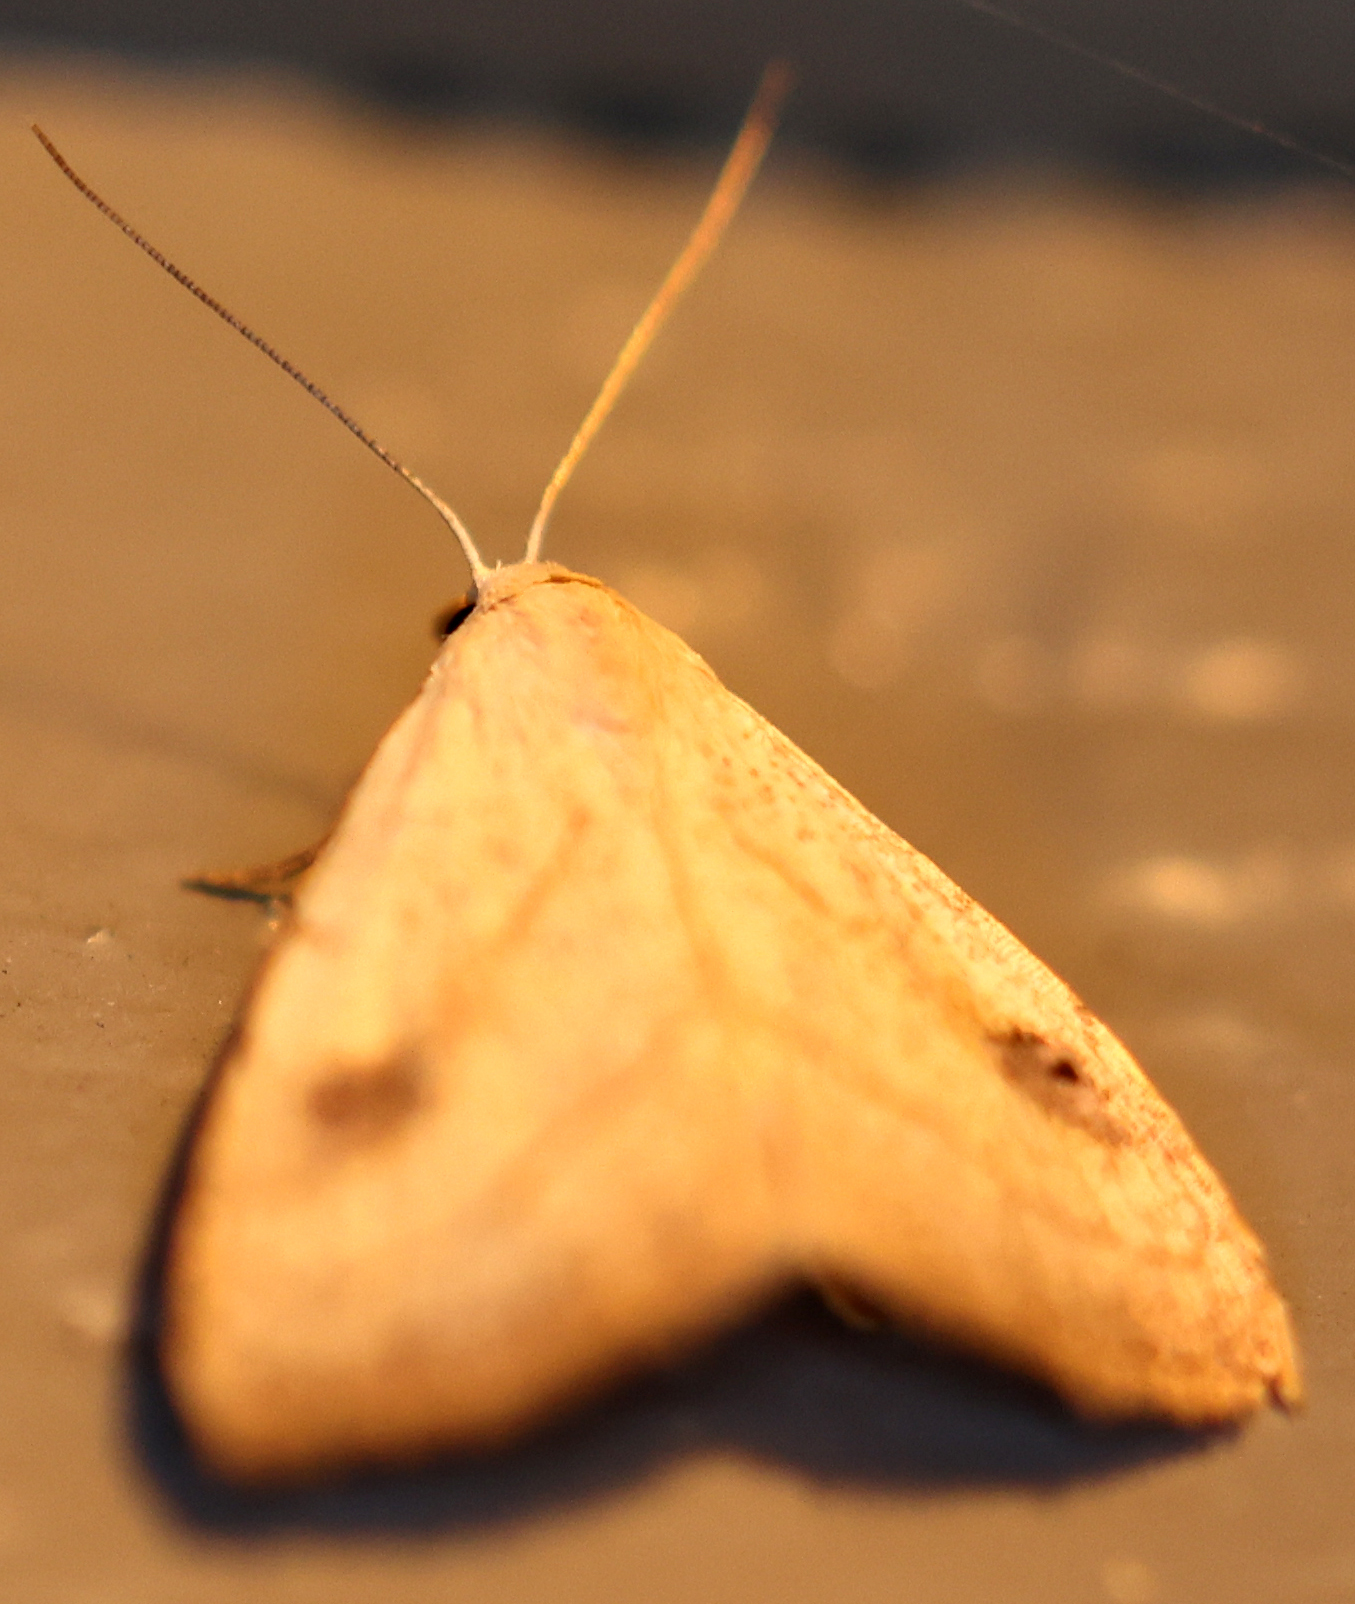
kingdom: Animalia
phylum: Arthropoda
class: Insecta
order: Lepidoptera
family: Erebidae
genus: Rivula
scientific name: Rivula propinqualis
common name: Spotted grass moth
